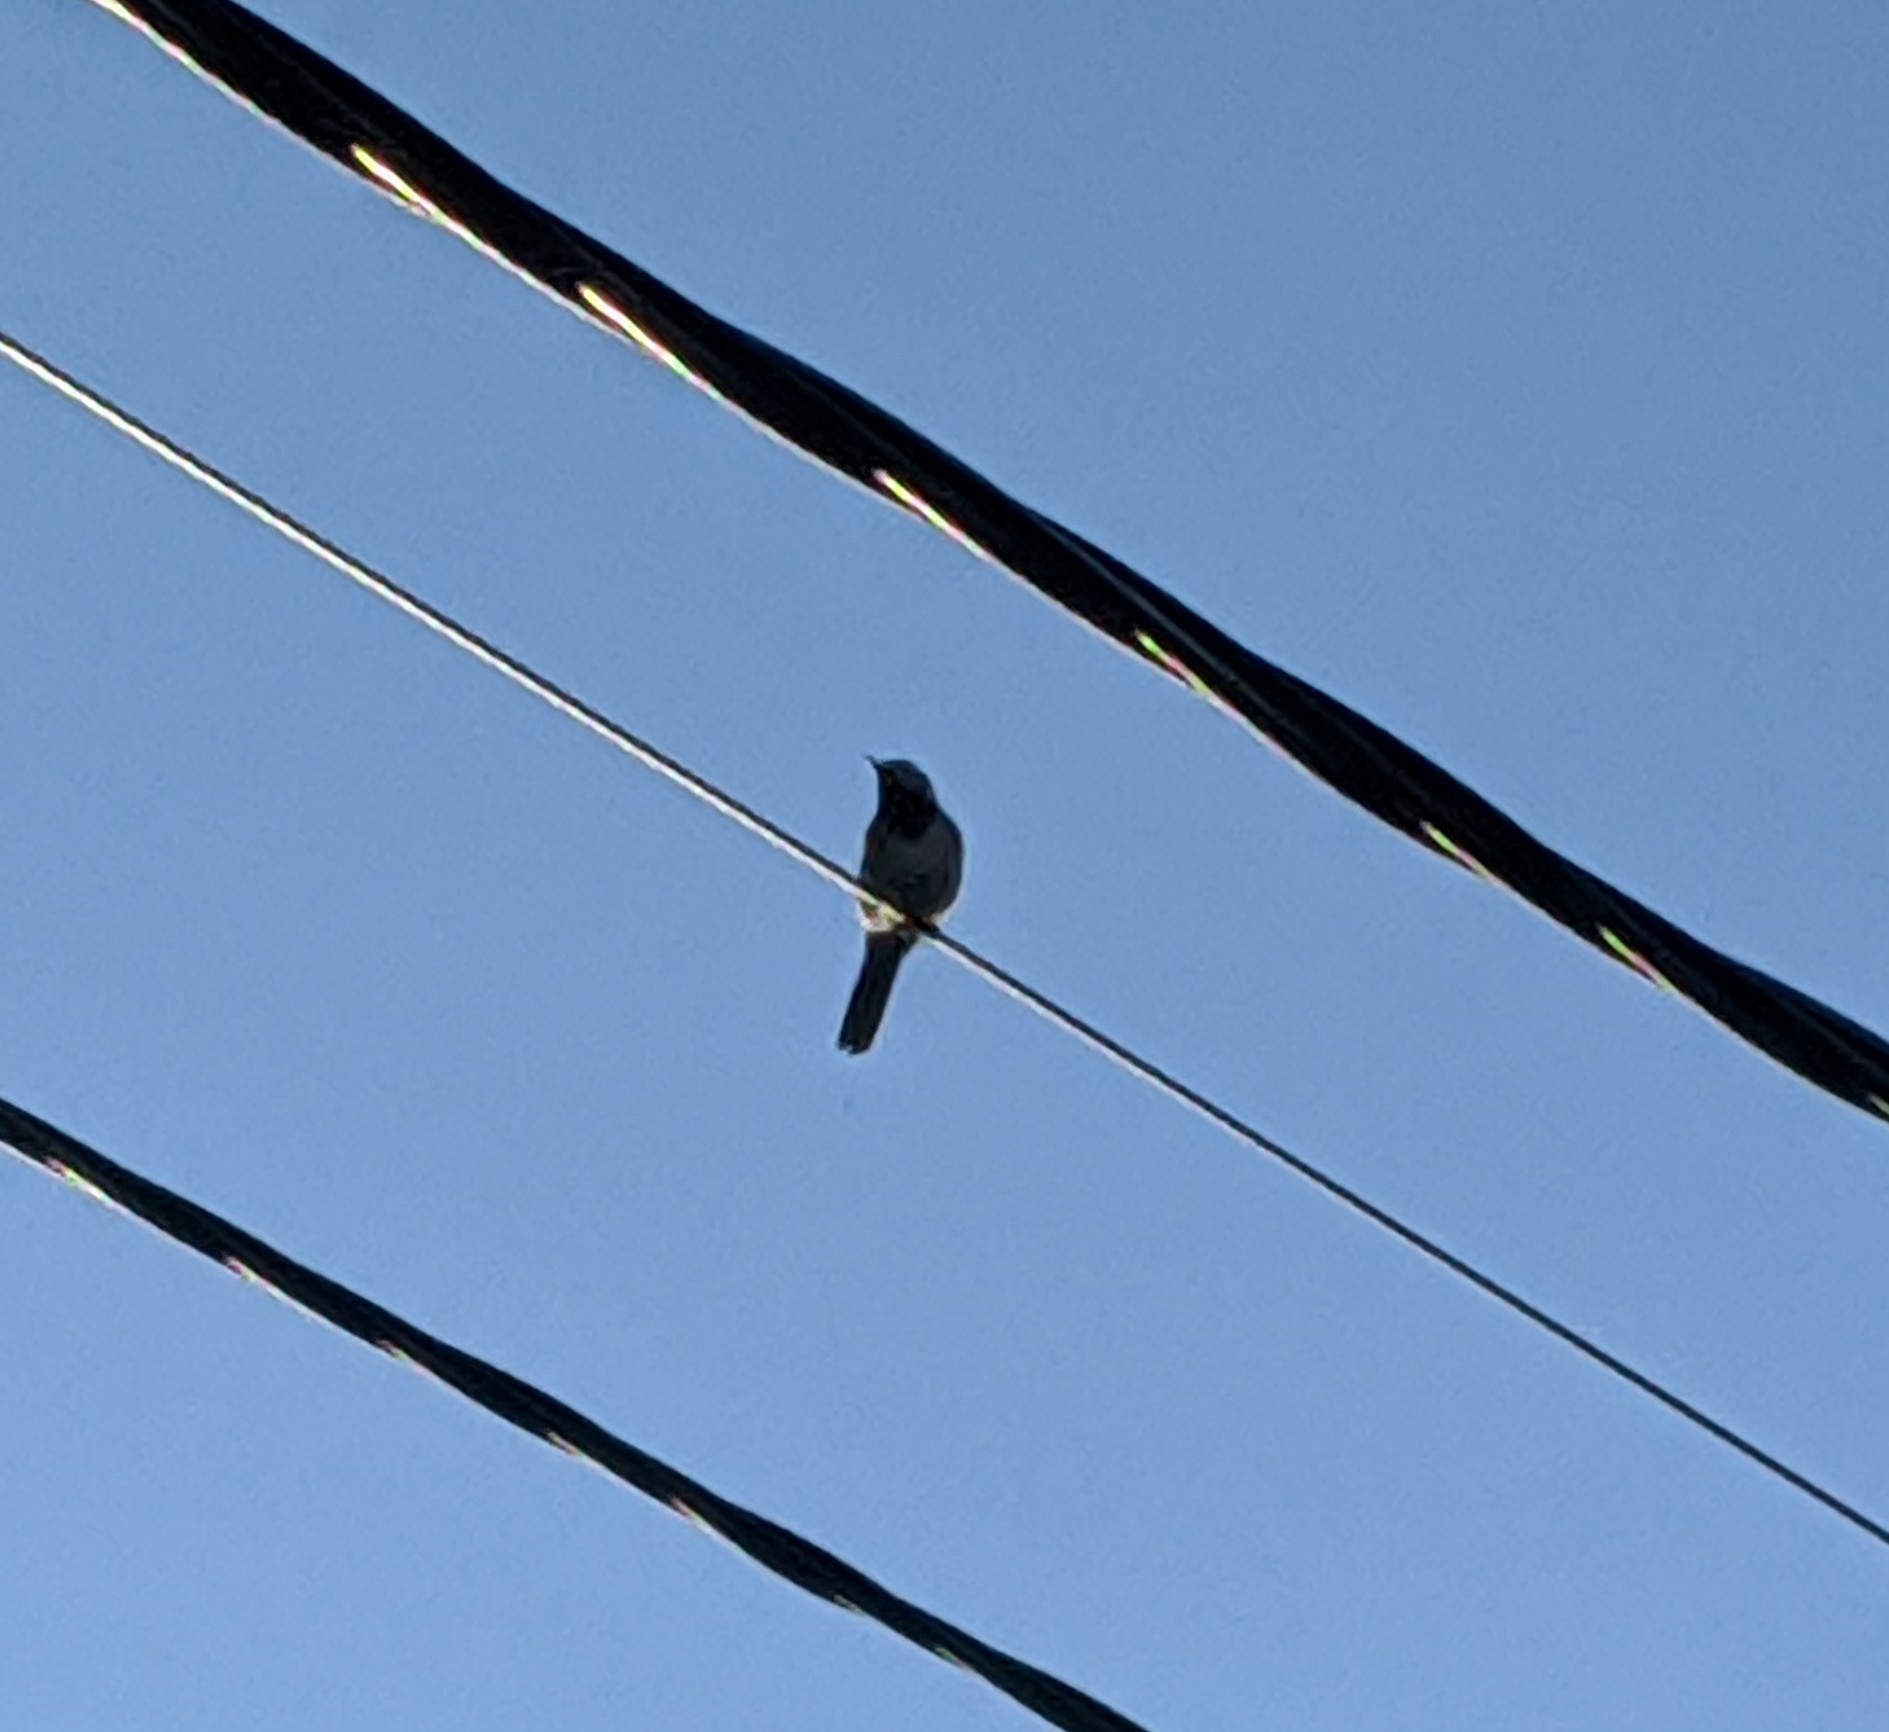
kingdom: Animalia
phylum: Chordata
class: Aves
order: Passeriformes
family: Motacillidae
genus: Motacilla
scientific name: Motacilla alba
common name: White wagtail
